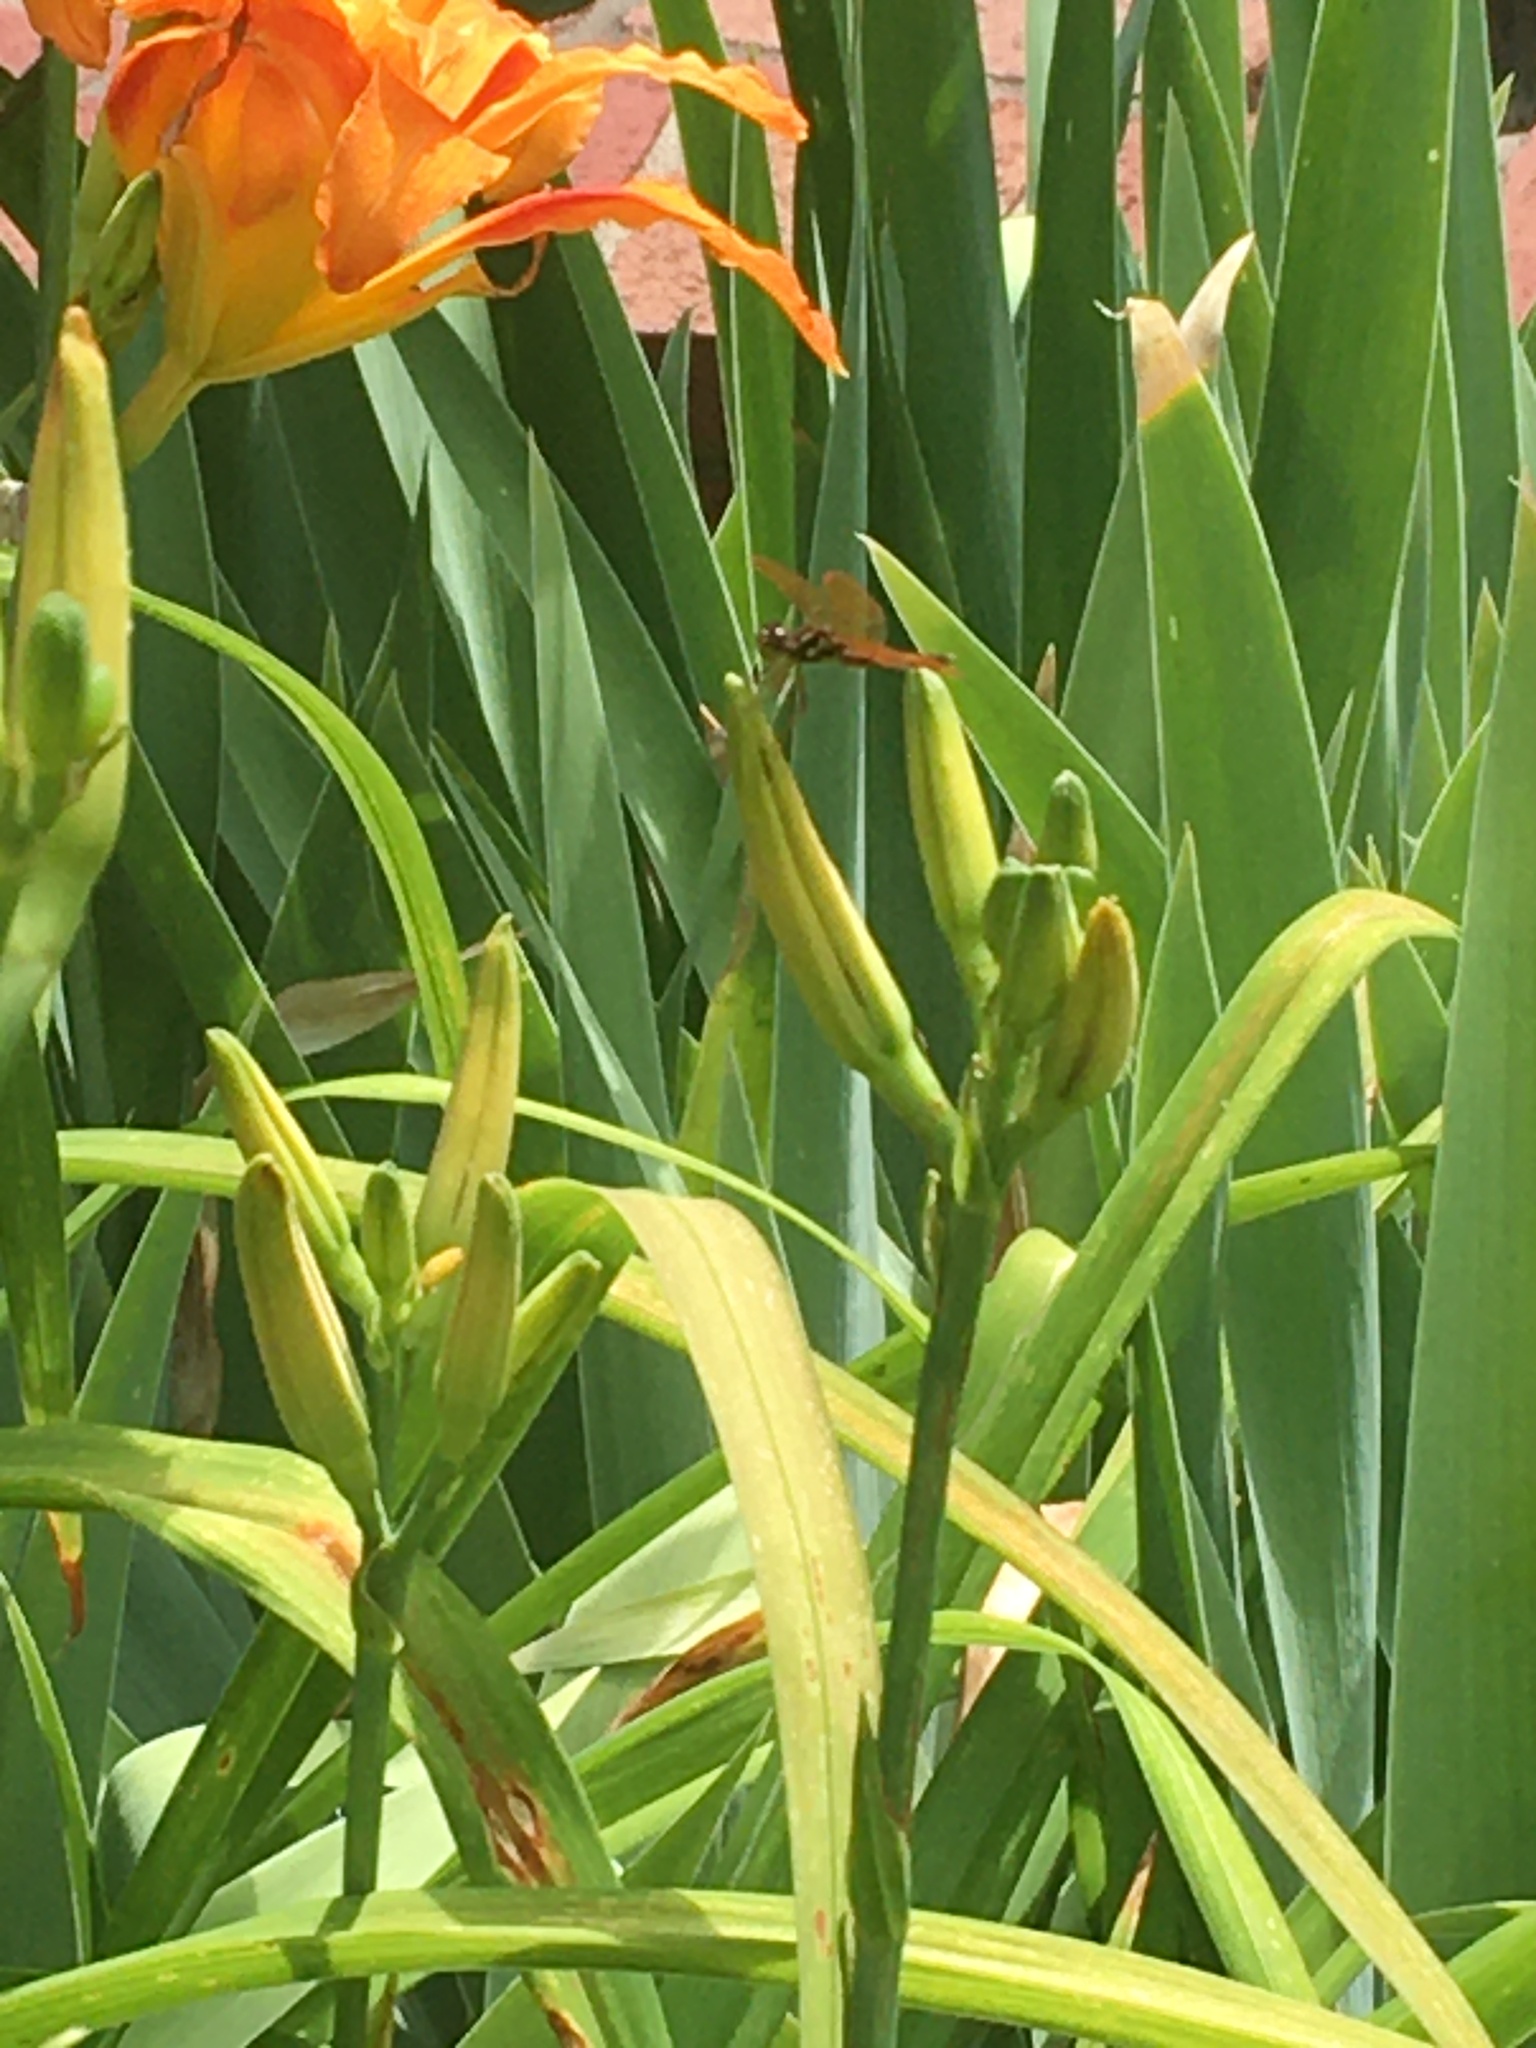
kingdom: Animalia
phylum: Arthropoda
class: Insecta
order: Odonata
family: Libellulidae
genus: Perithemis
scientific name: Perithemis tenera
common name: Eastern amberwing
